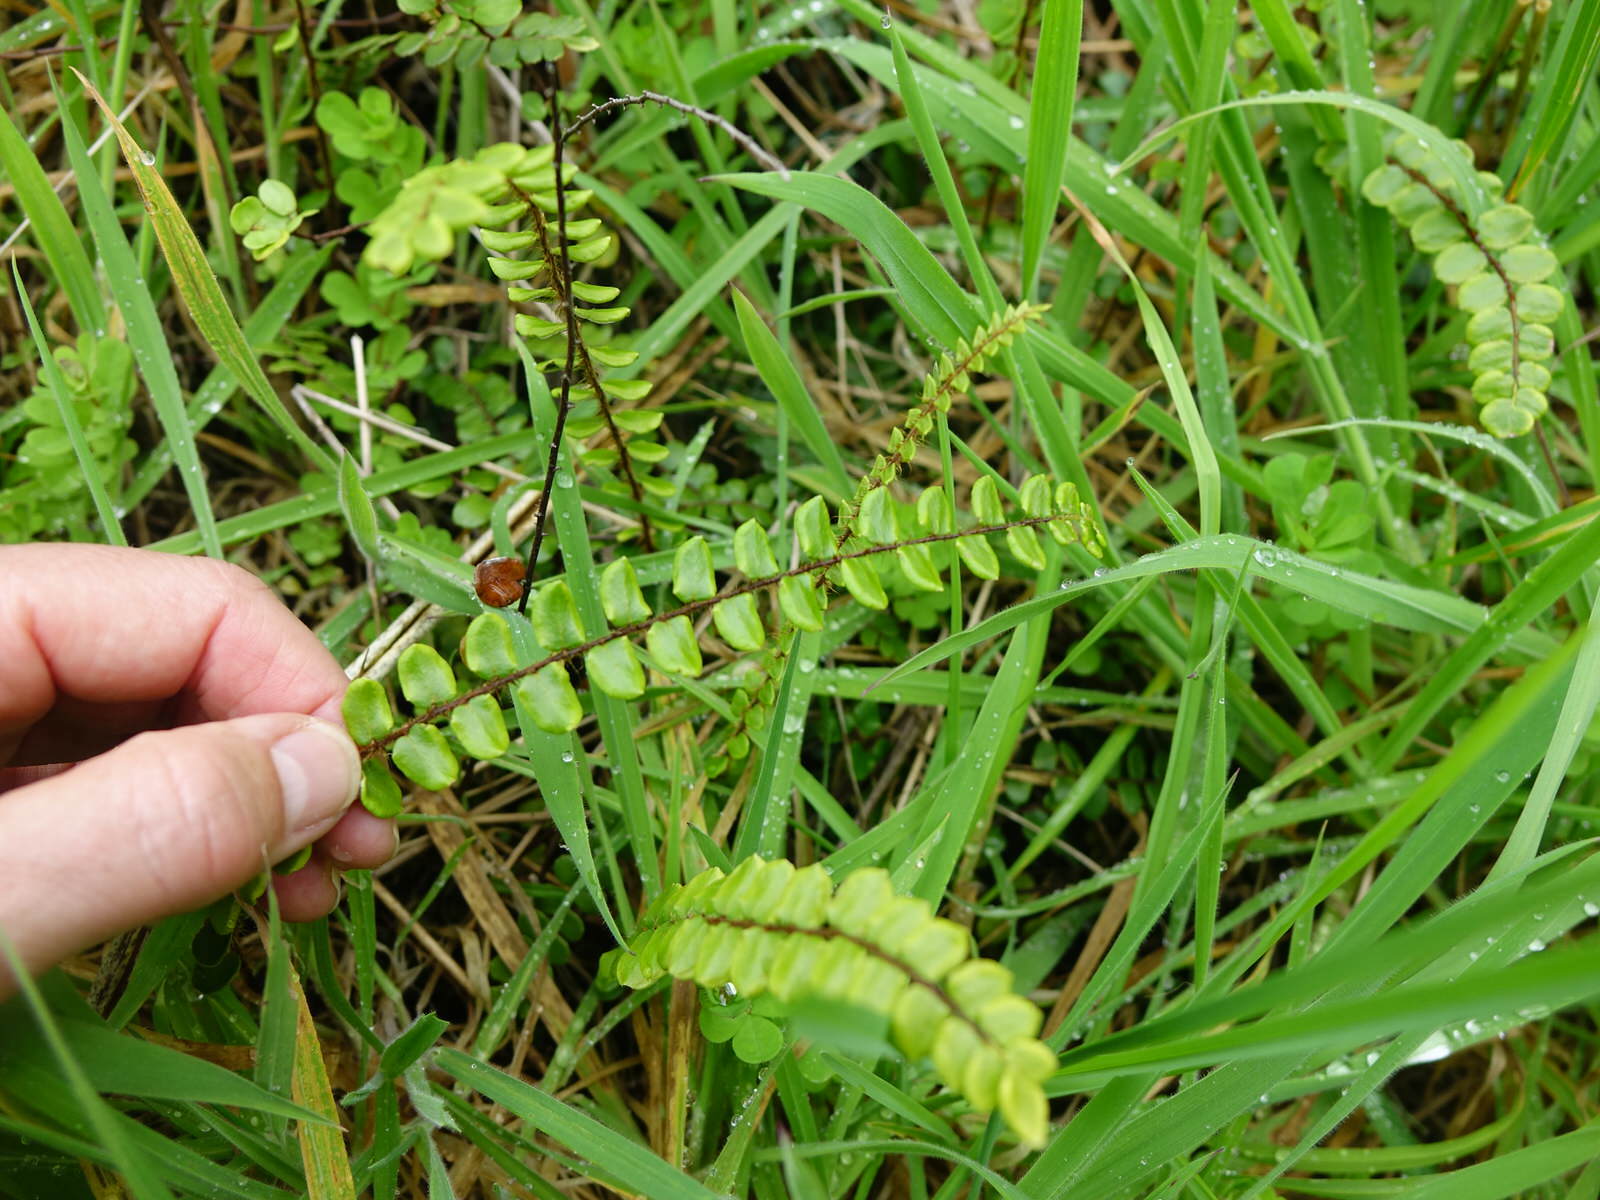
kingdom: Plantae
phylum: Tracheophyta
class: Polypodiopsida
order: Polypodiales
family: Pteridaceae
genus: Pellaea
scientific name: Pellaea rotundifolia
